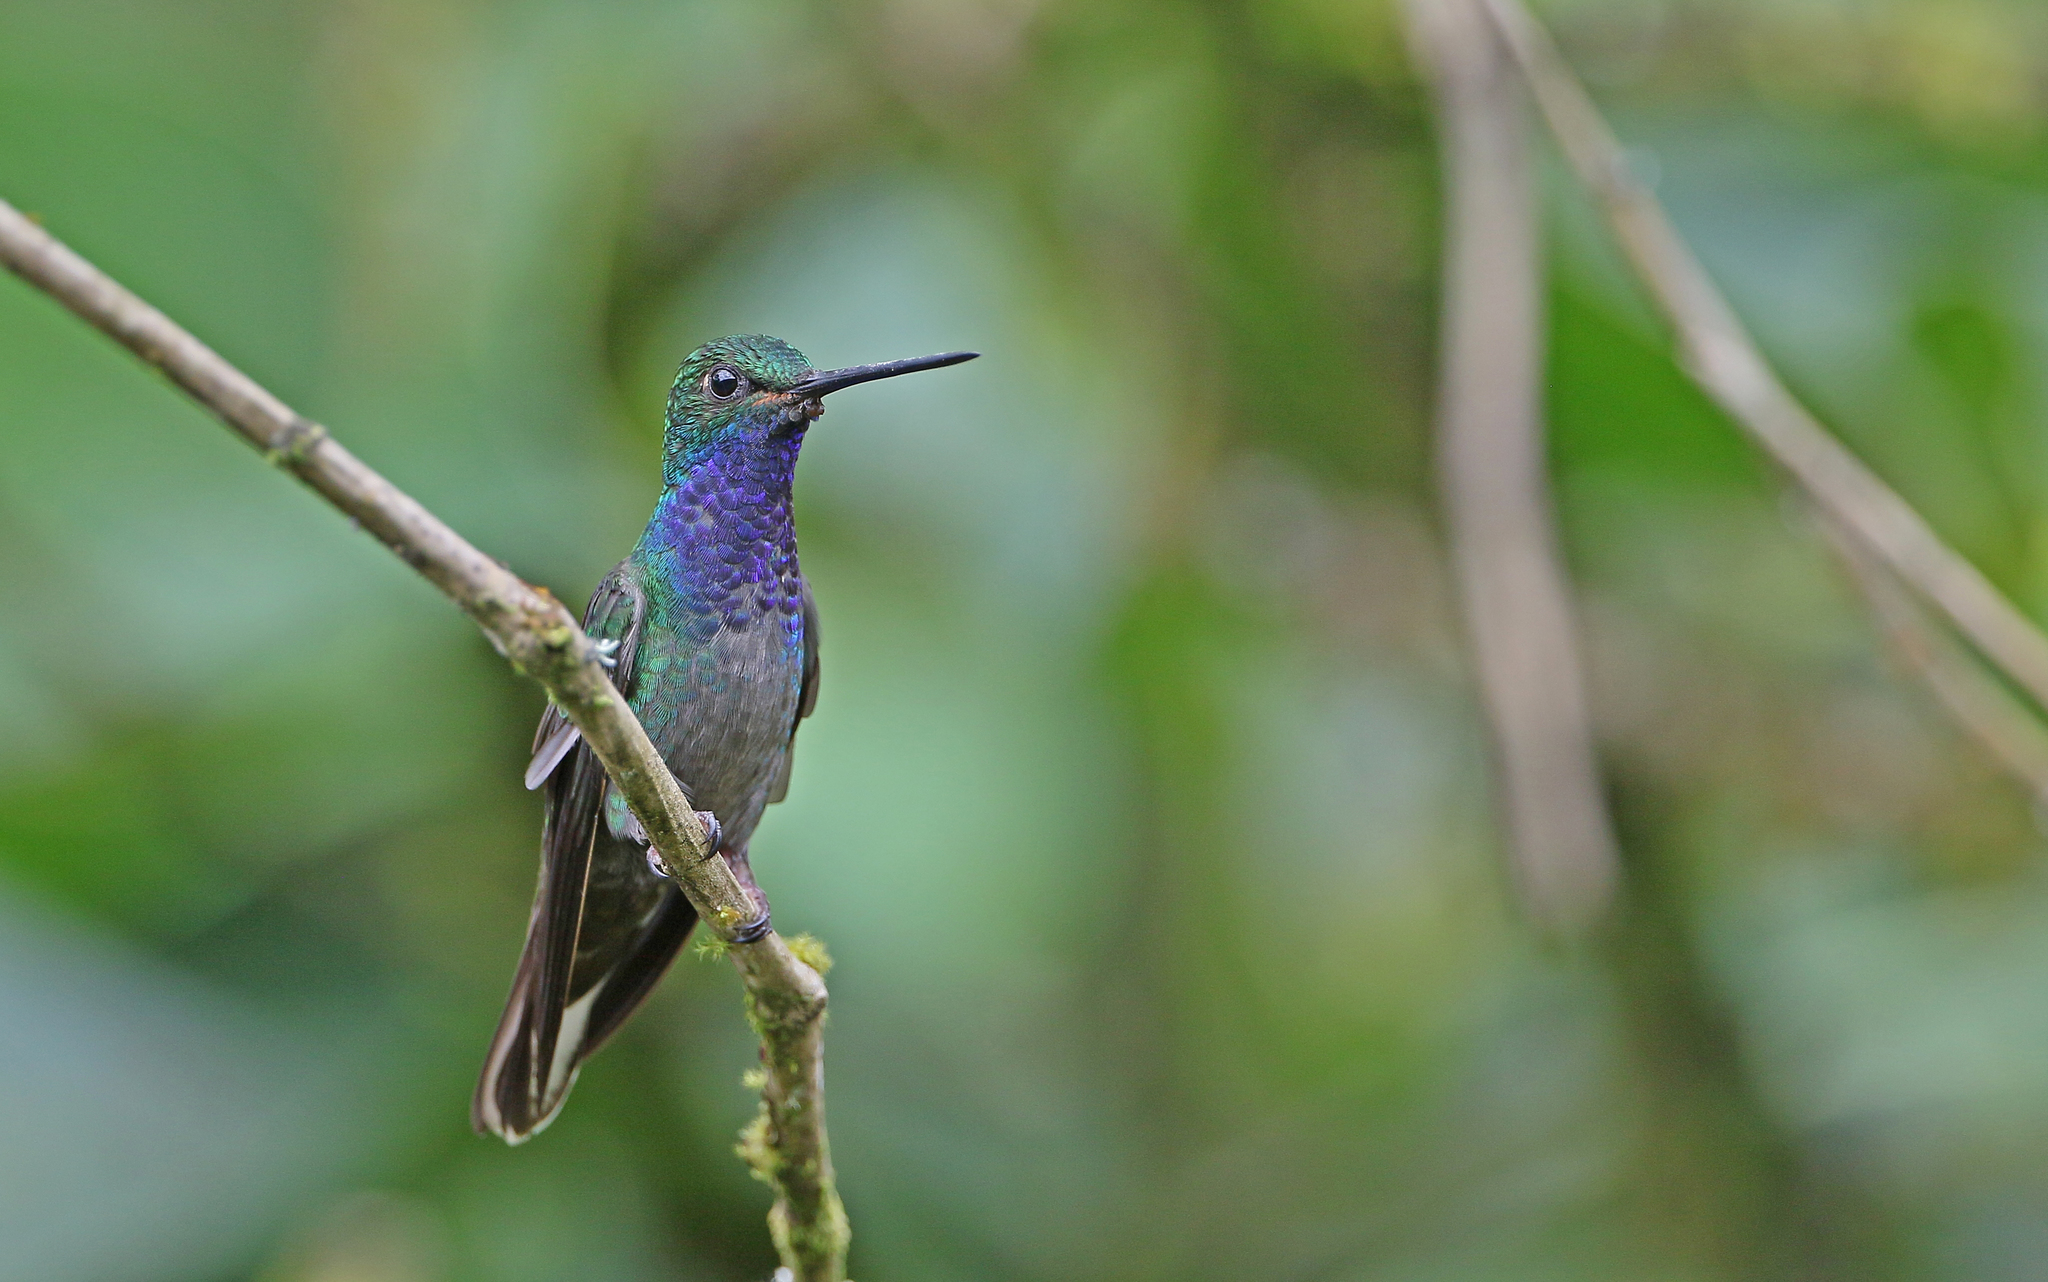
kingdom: Animalia
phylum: Chordata
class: Aves
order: Apodiformes
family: Trochilidae
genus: Urochroa
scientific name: Urochroa leucura
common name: Green-backed hillstar
